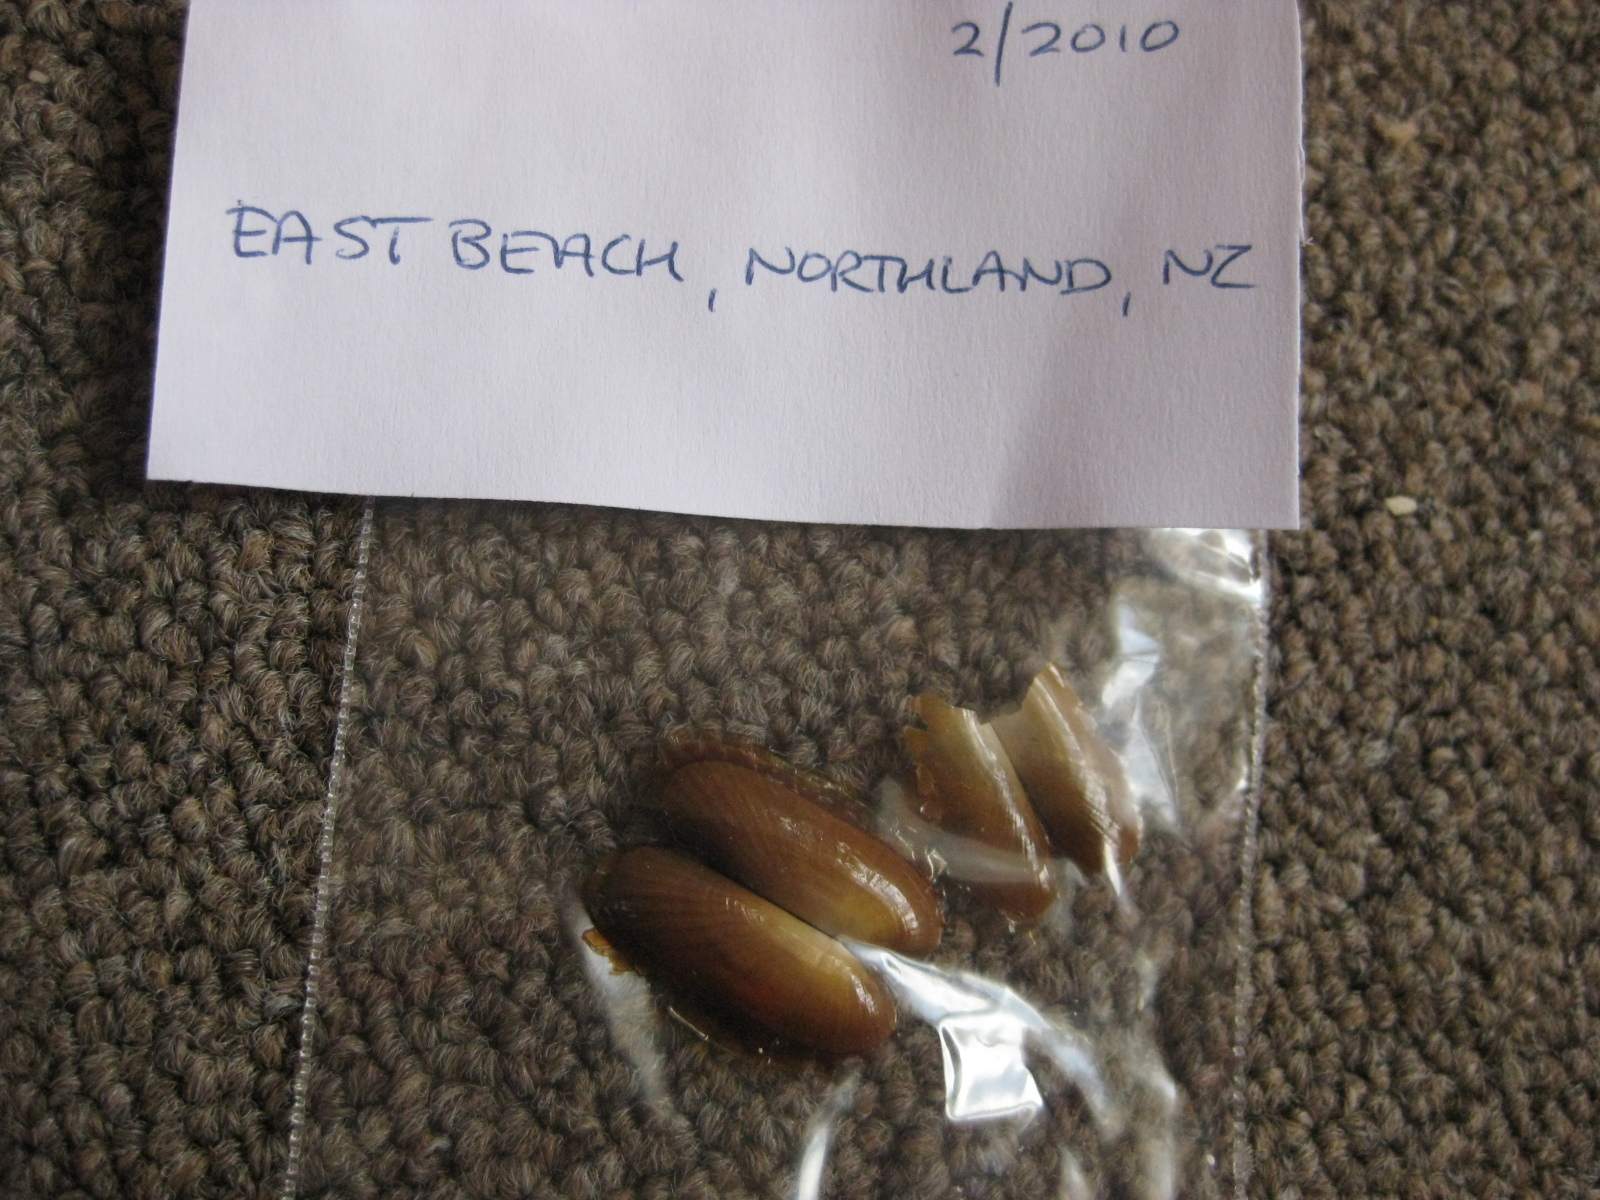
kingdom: Animalia
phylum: Mollusca
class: Bivalvia
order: Solemyida
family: Solemyidae
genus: Solemya
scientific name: Solemya parkinsonii
